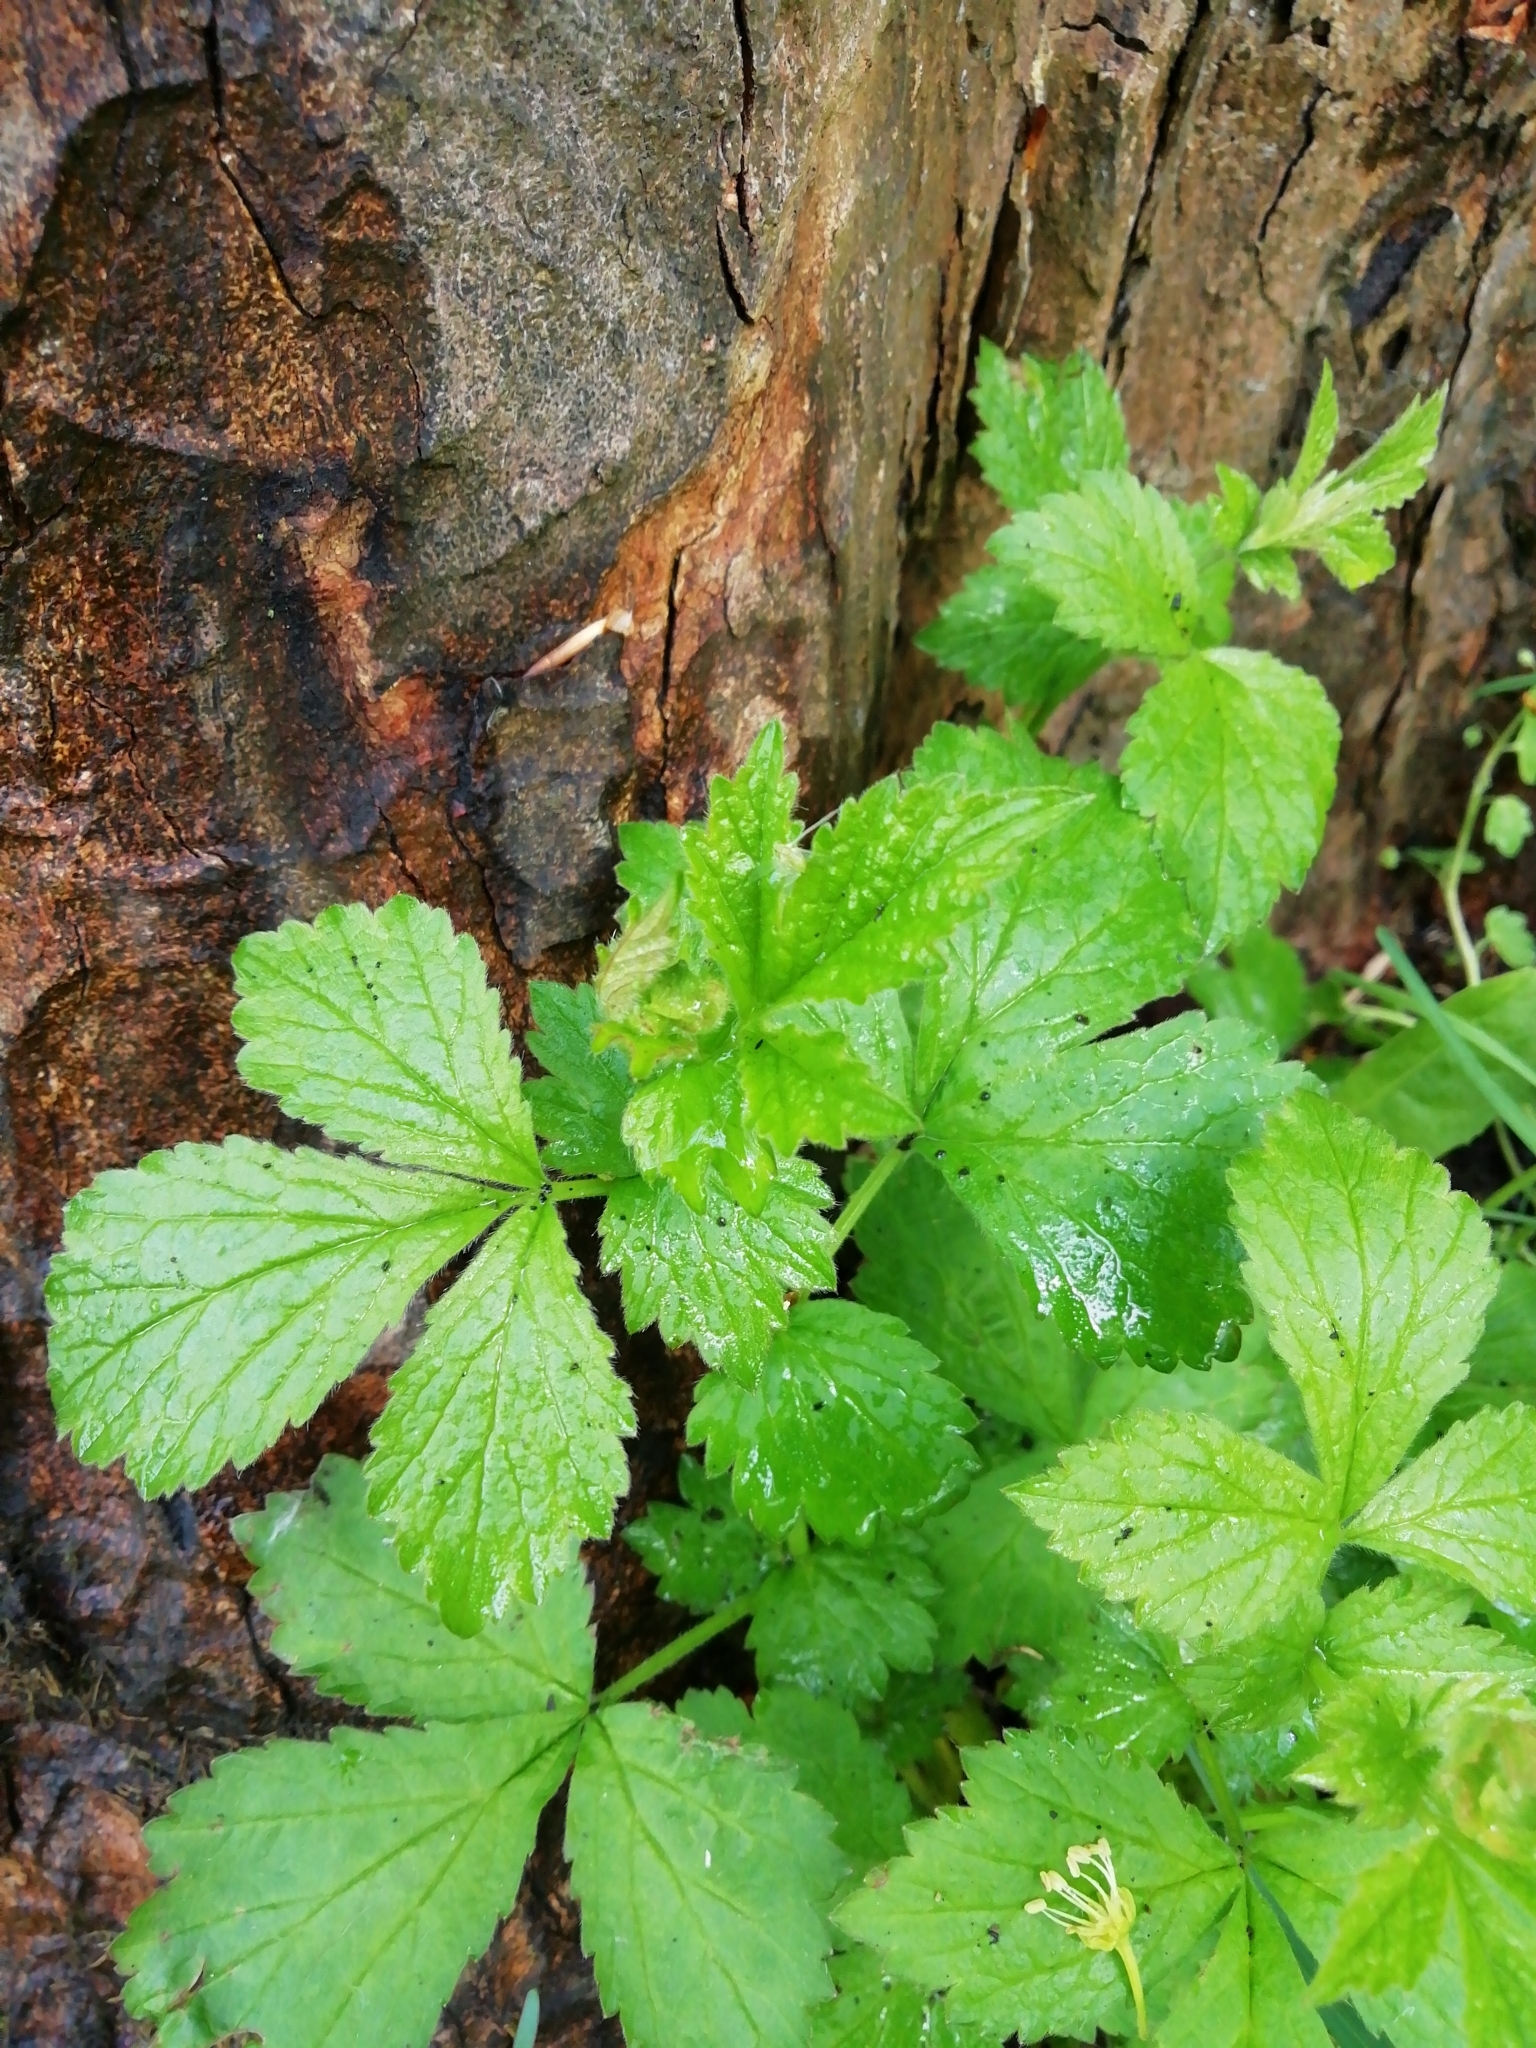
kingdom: Plantae
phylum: Tracheophyta
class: Magnoliopsida
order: Rosales
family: Rosaceae
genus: Geum
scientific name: Geum urbanum
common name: Wood avens
